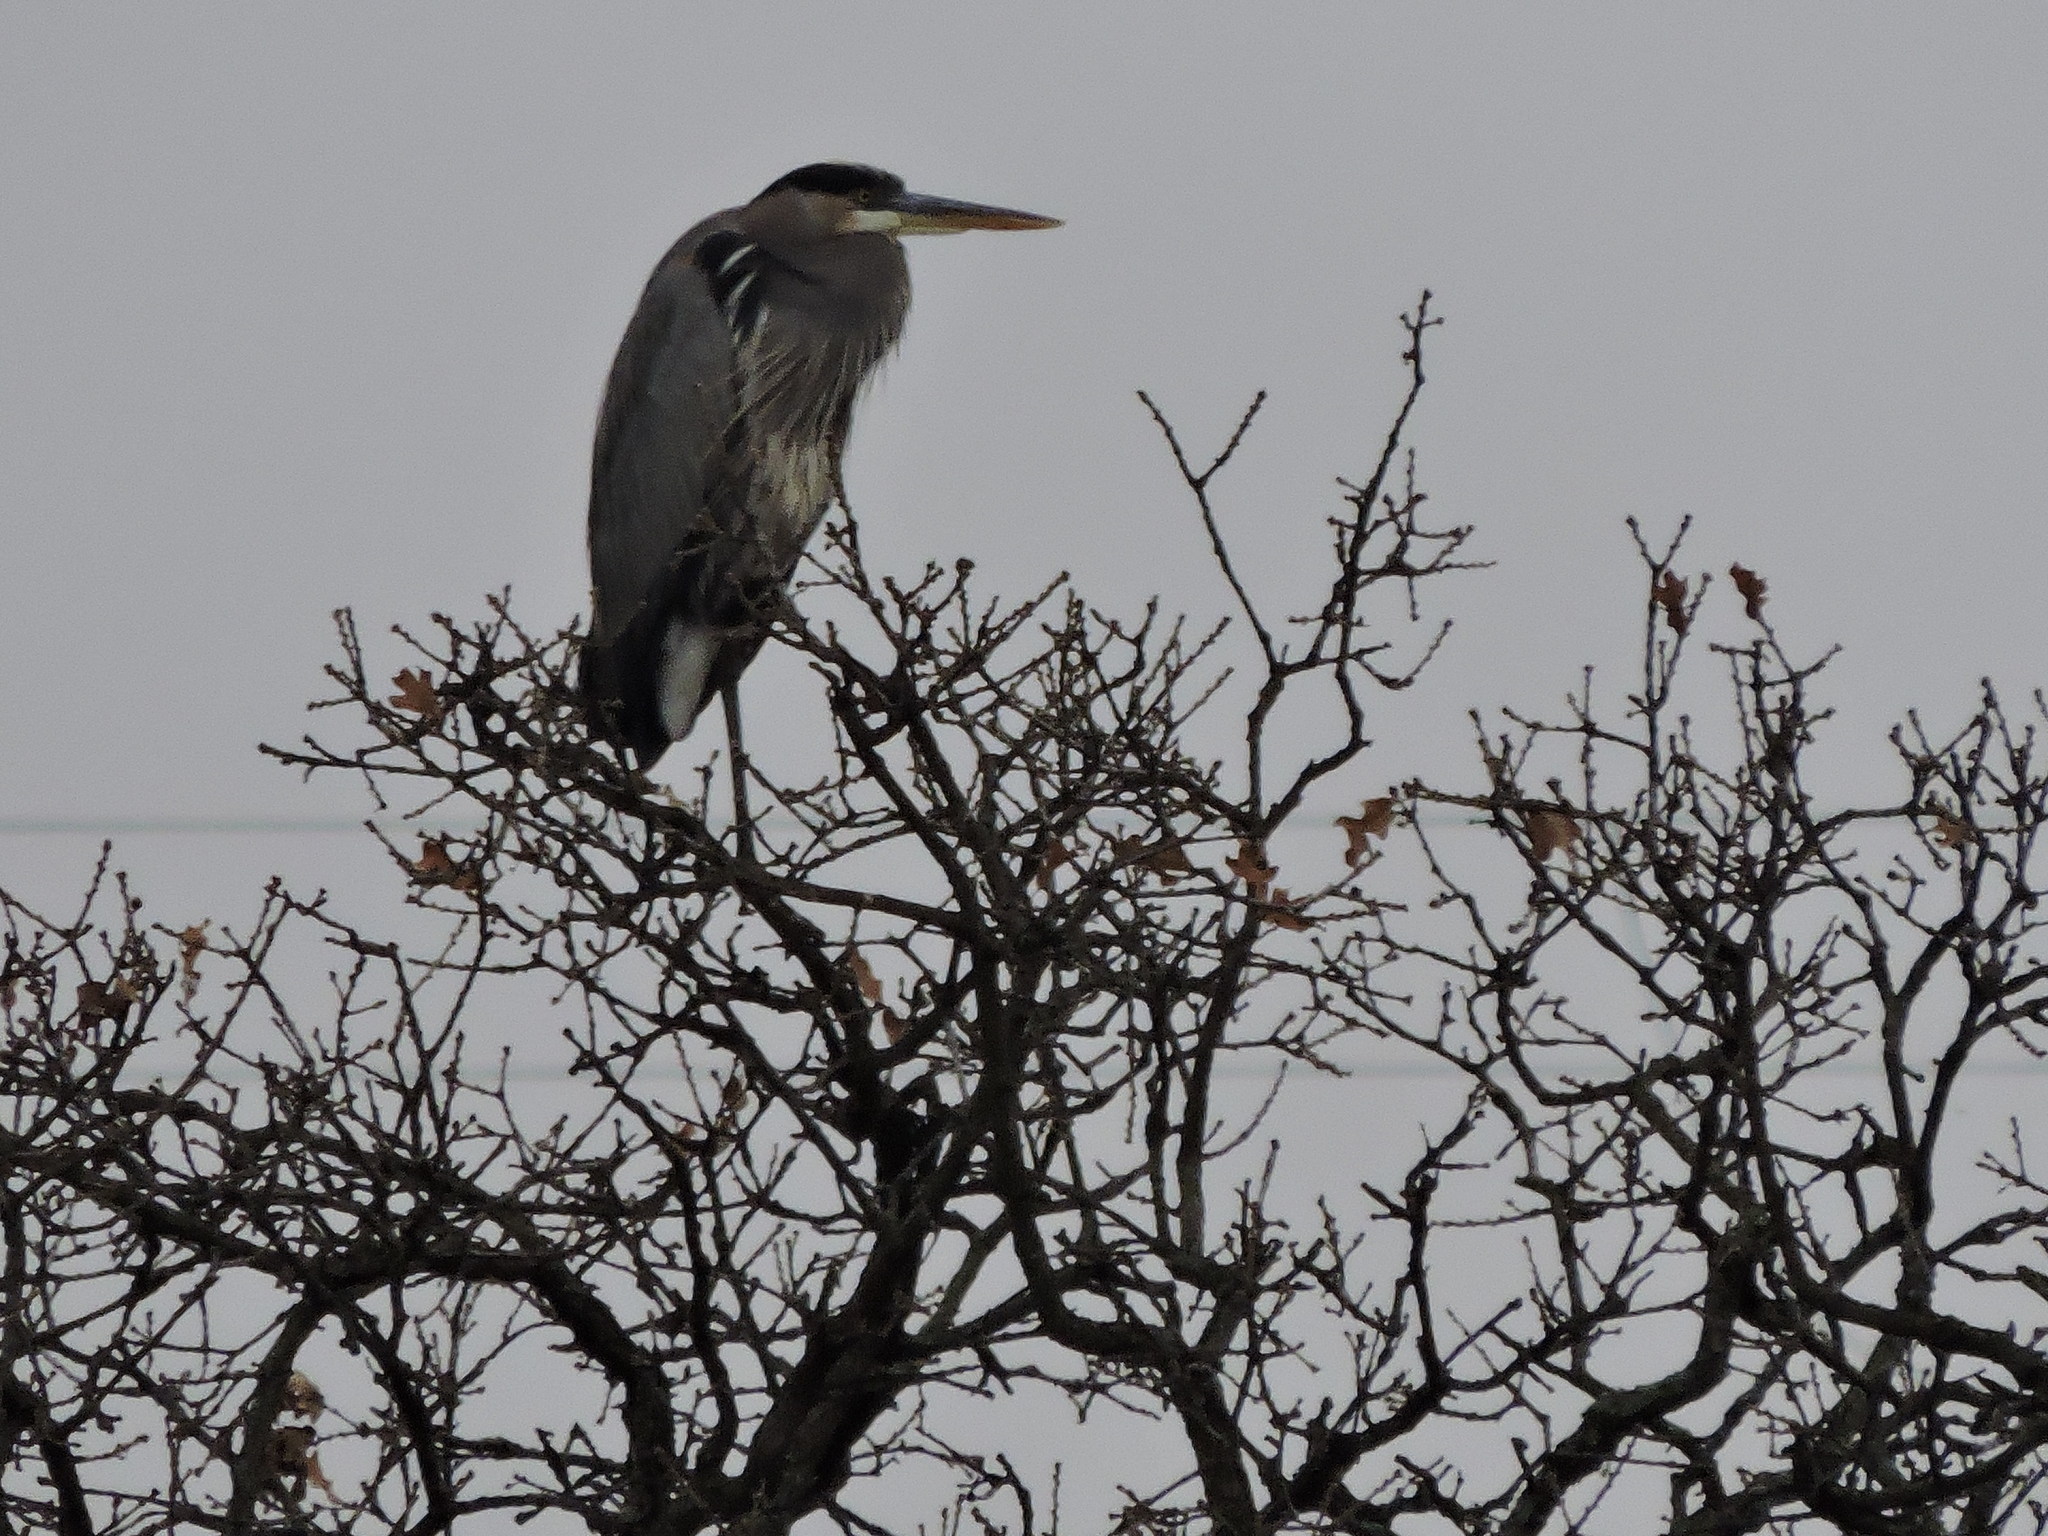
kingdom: Animalia
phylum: Chordata
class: Aves
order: Pelecaniformes
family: Ardeidae
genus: Ardea
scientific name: Ardea herodias
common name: Great blue heron
